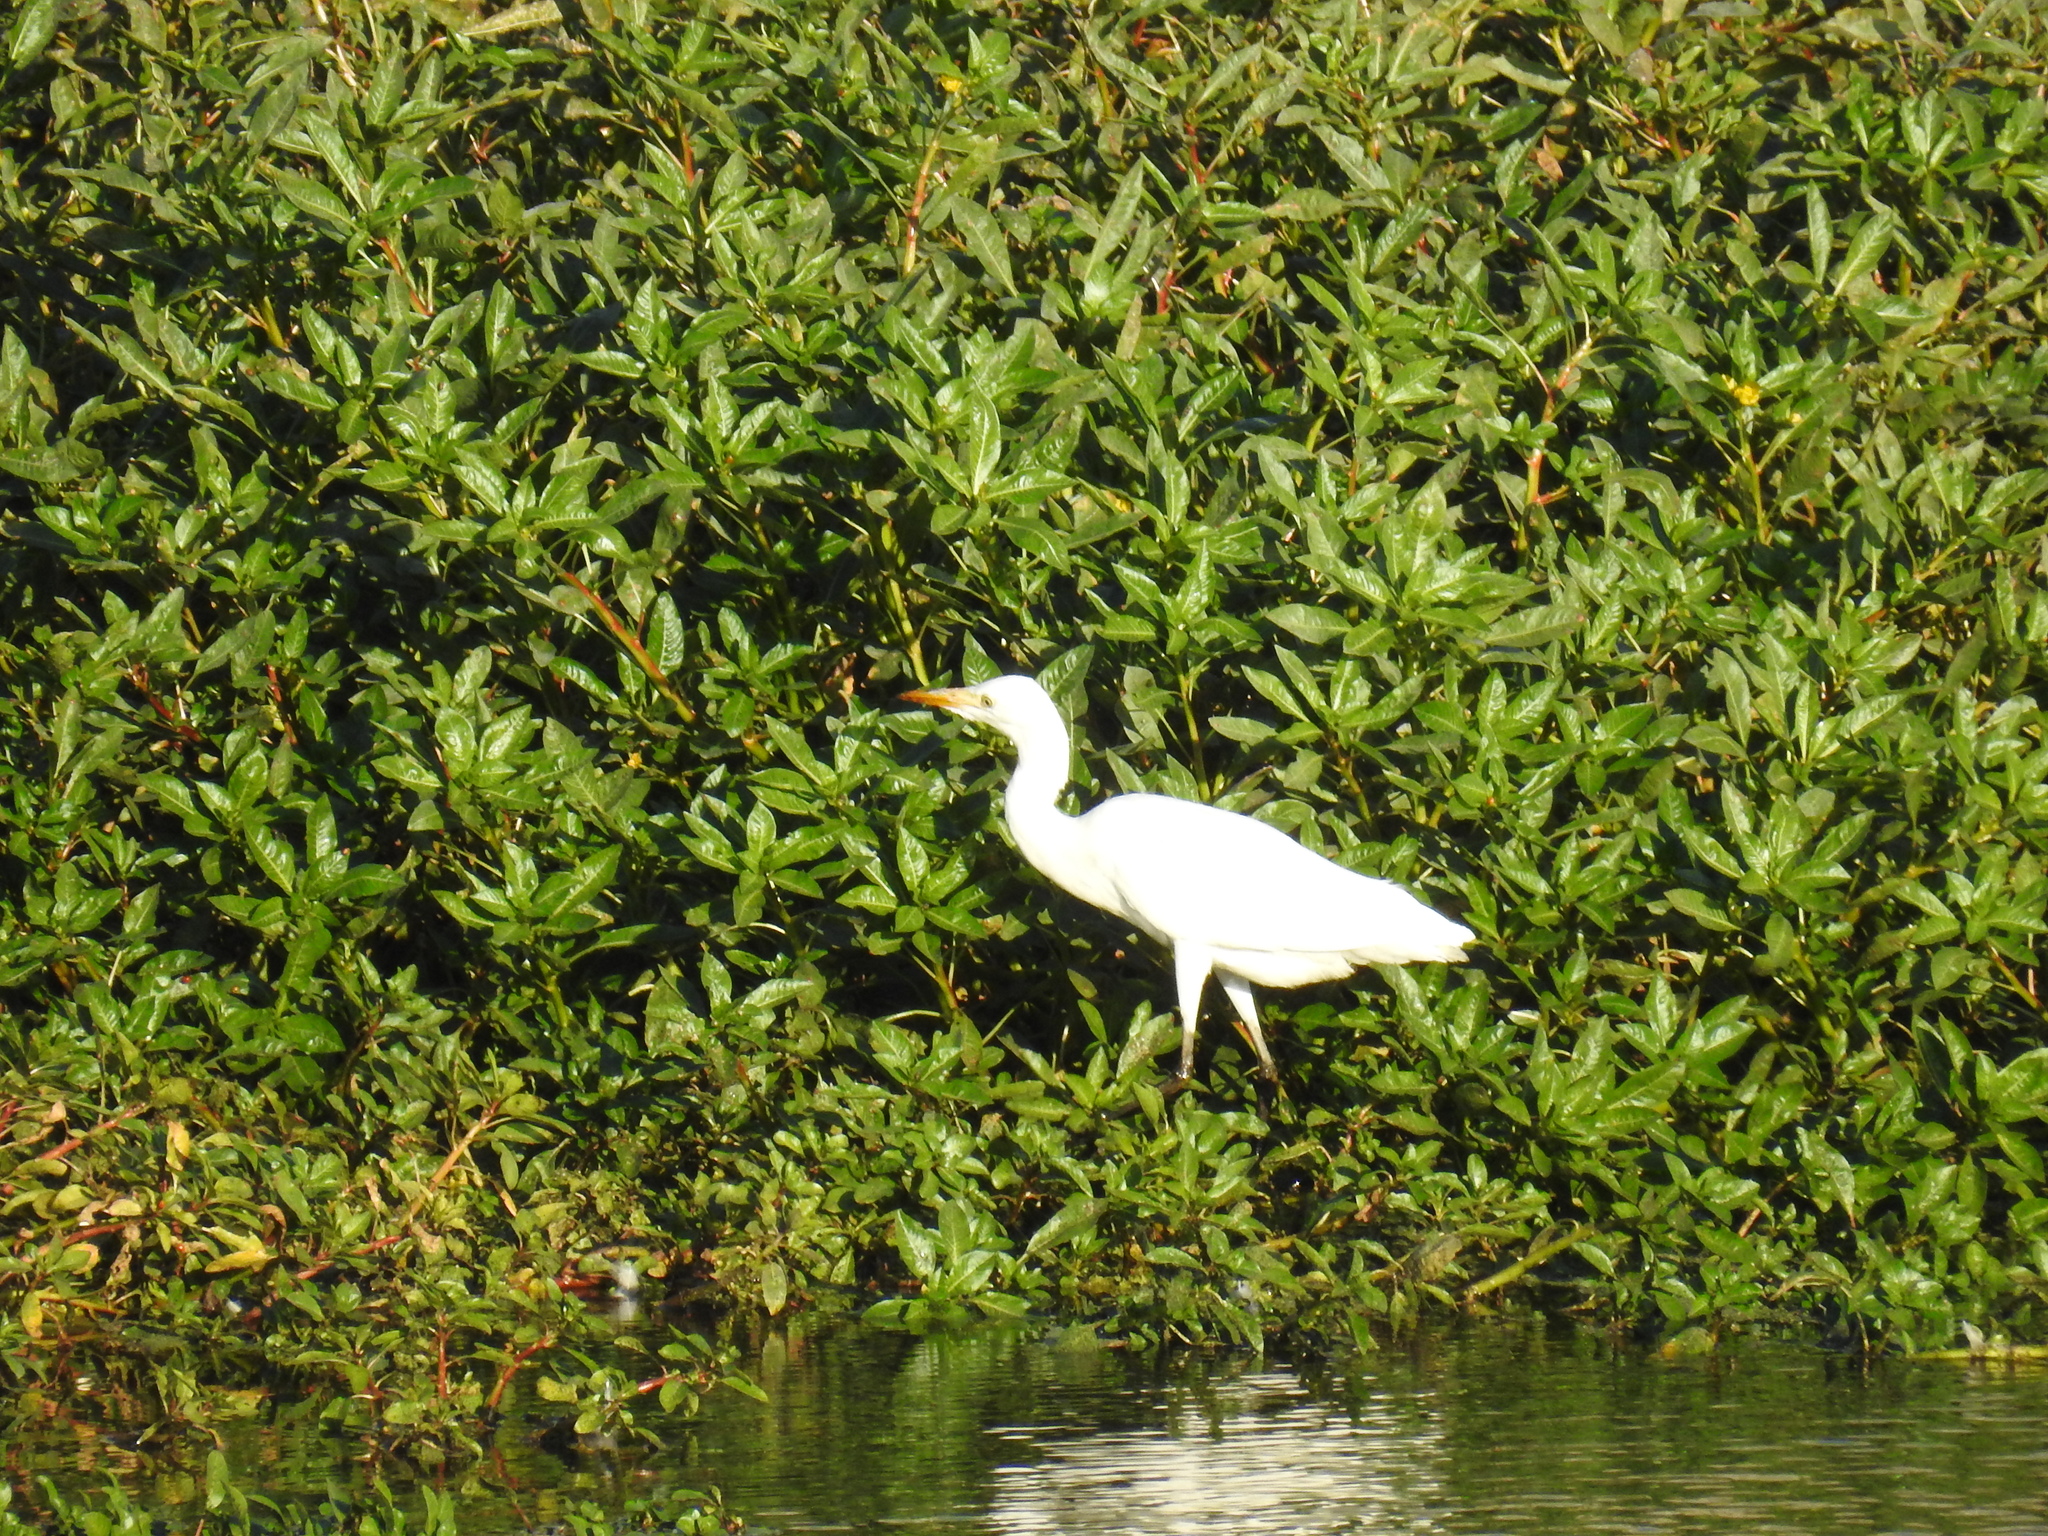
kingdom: Animalia
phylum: Chordata
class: Aves
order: Pelecaniformes
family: Ardeidae
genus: Bubulcus
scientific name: Bubulcus ibis
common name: Cattle egret
